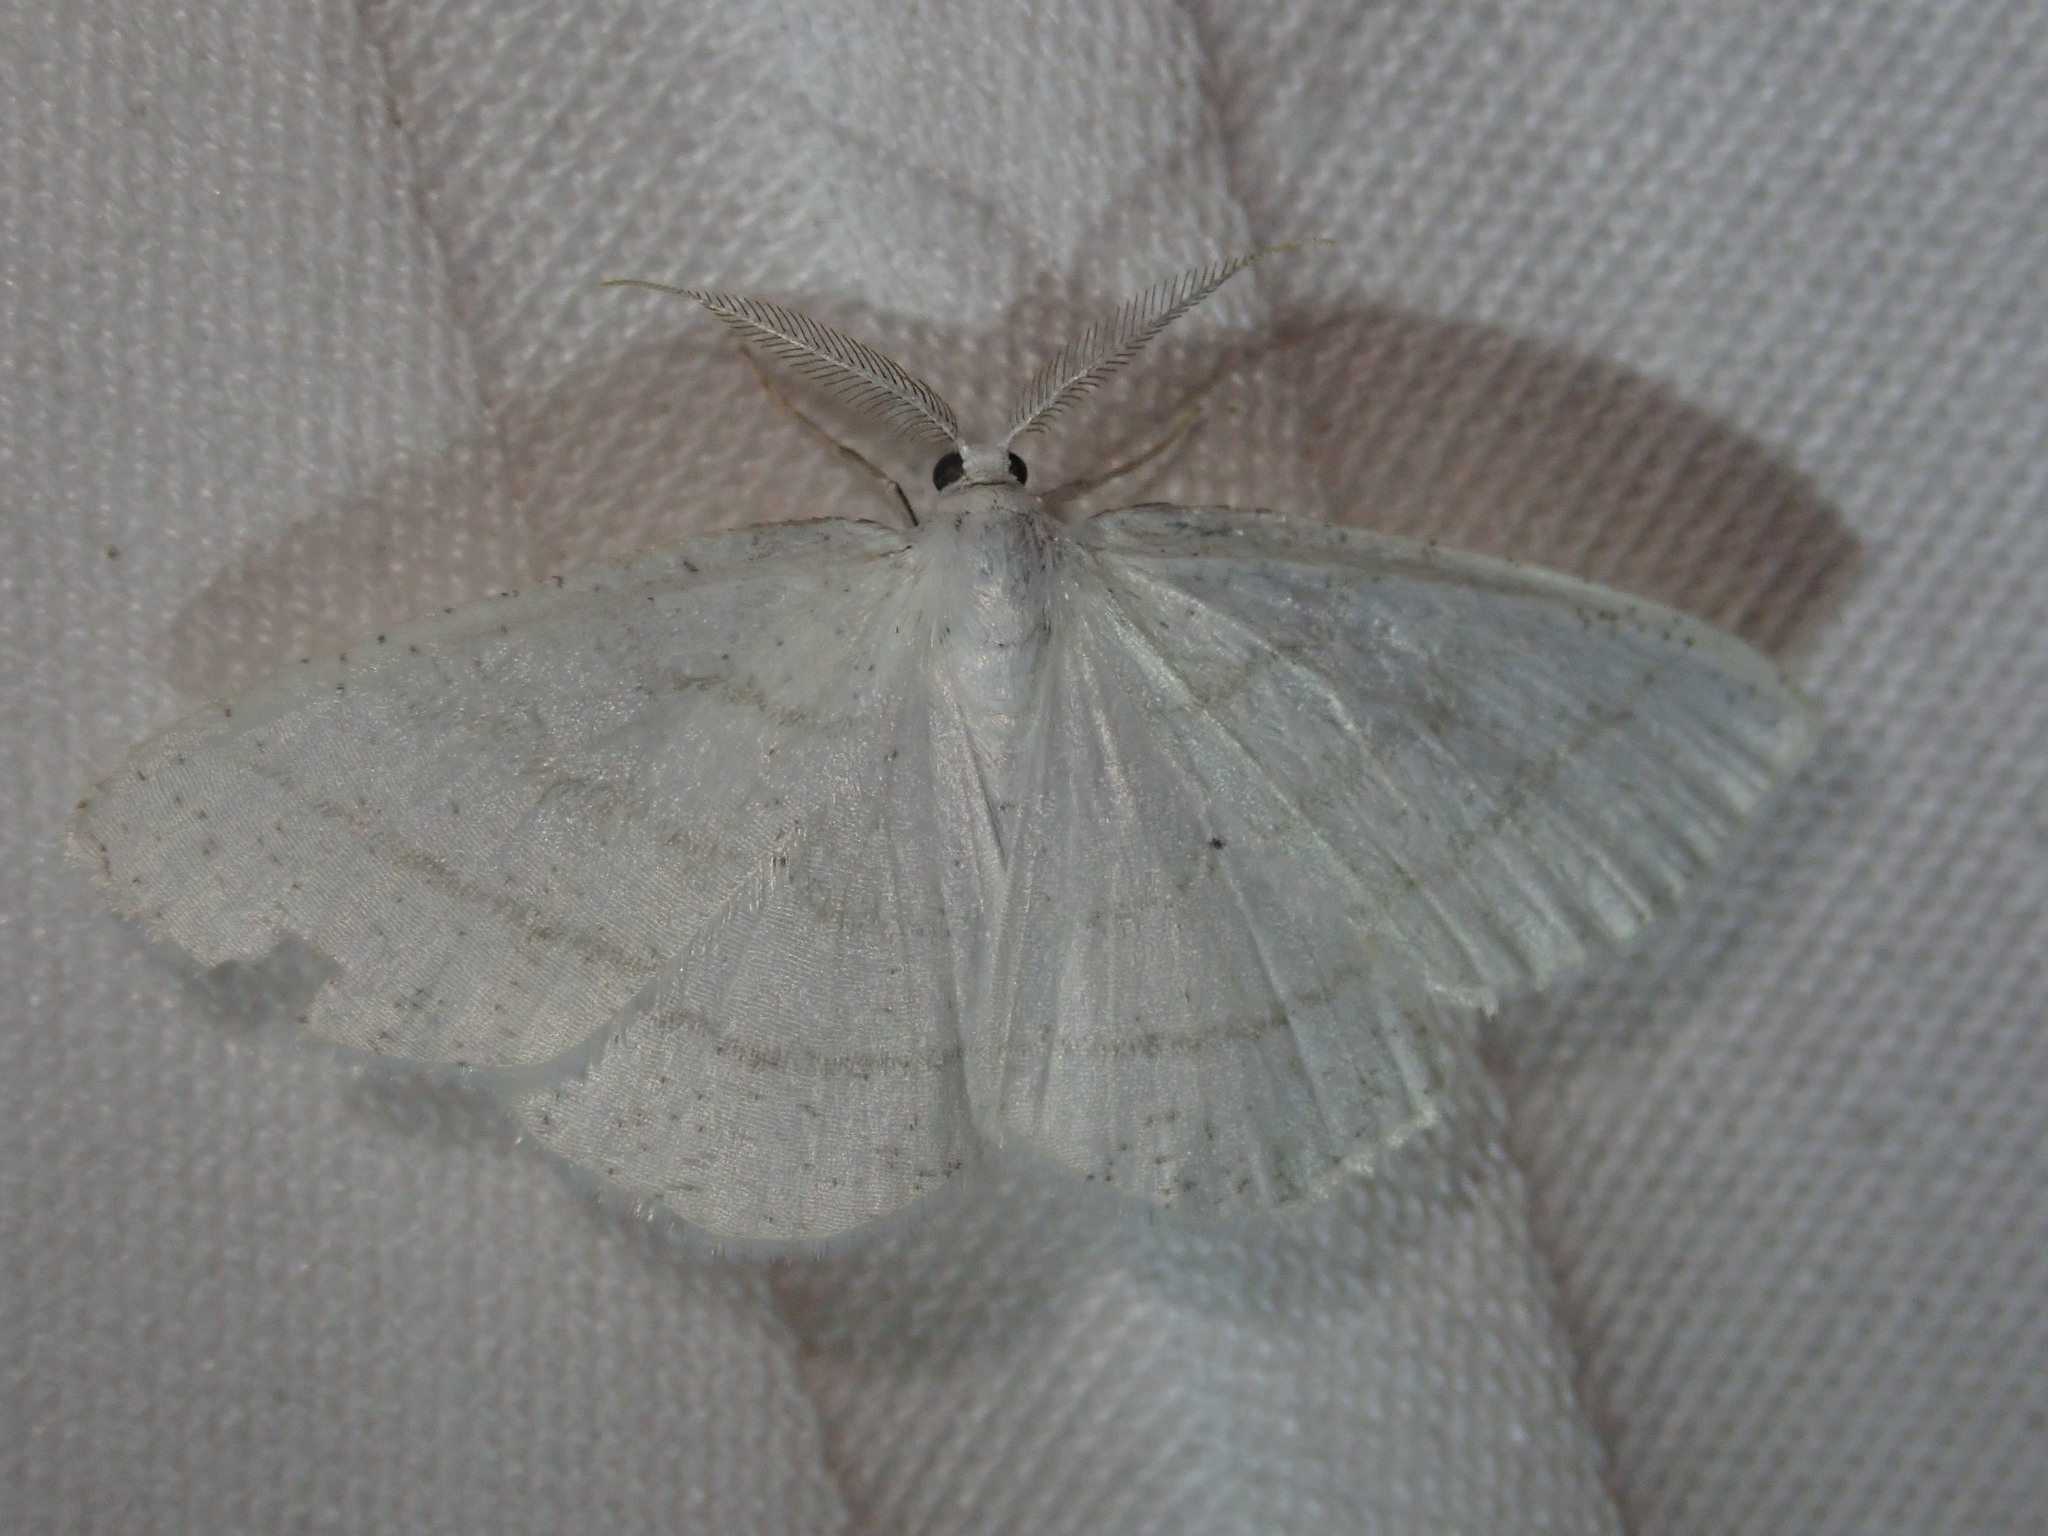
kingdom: Animalia
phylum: Arthropoda
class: Insecta
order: Lepidoptera
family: Geometridae
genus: Cabera
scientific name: Cabera pusaria
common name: Common white wave
